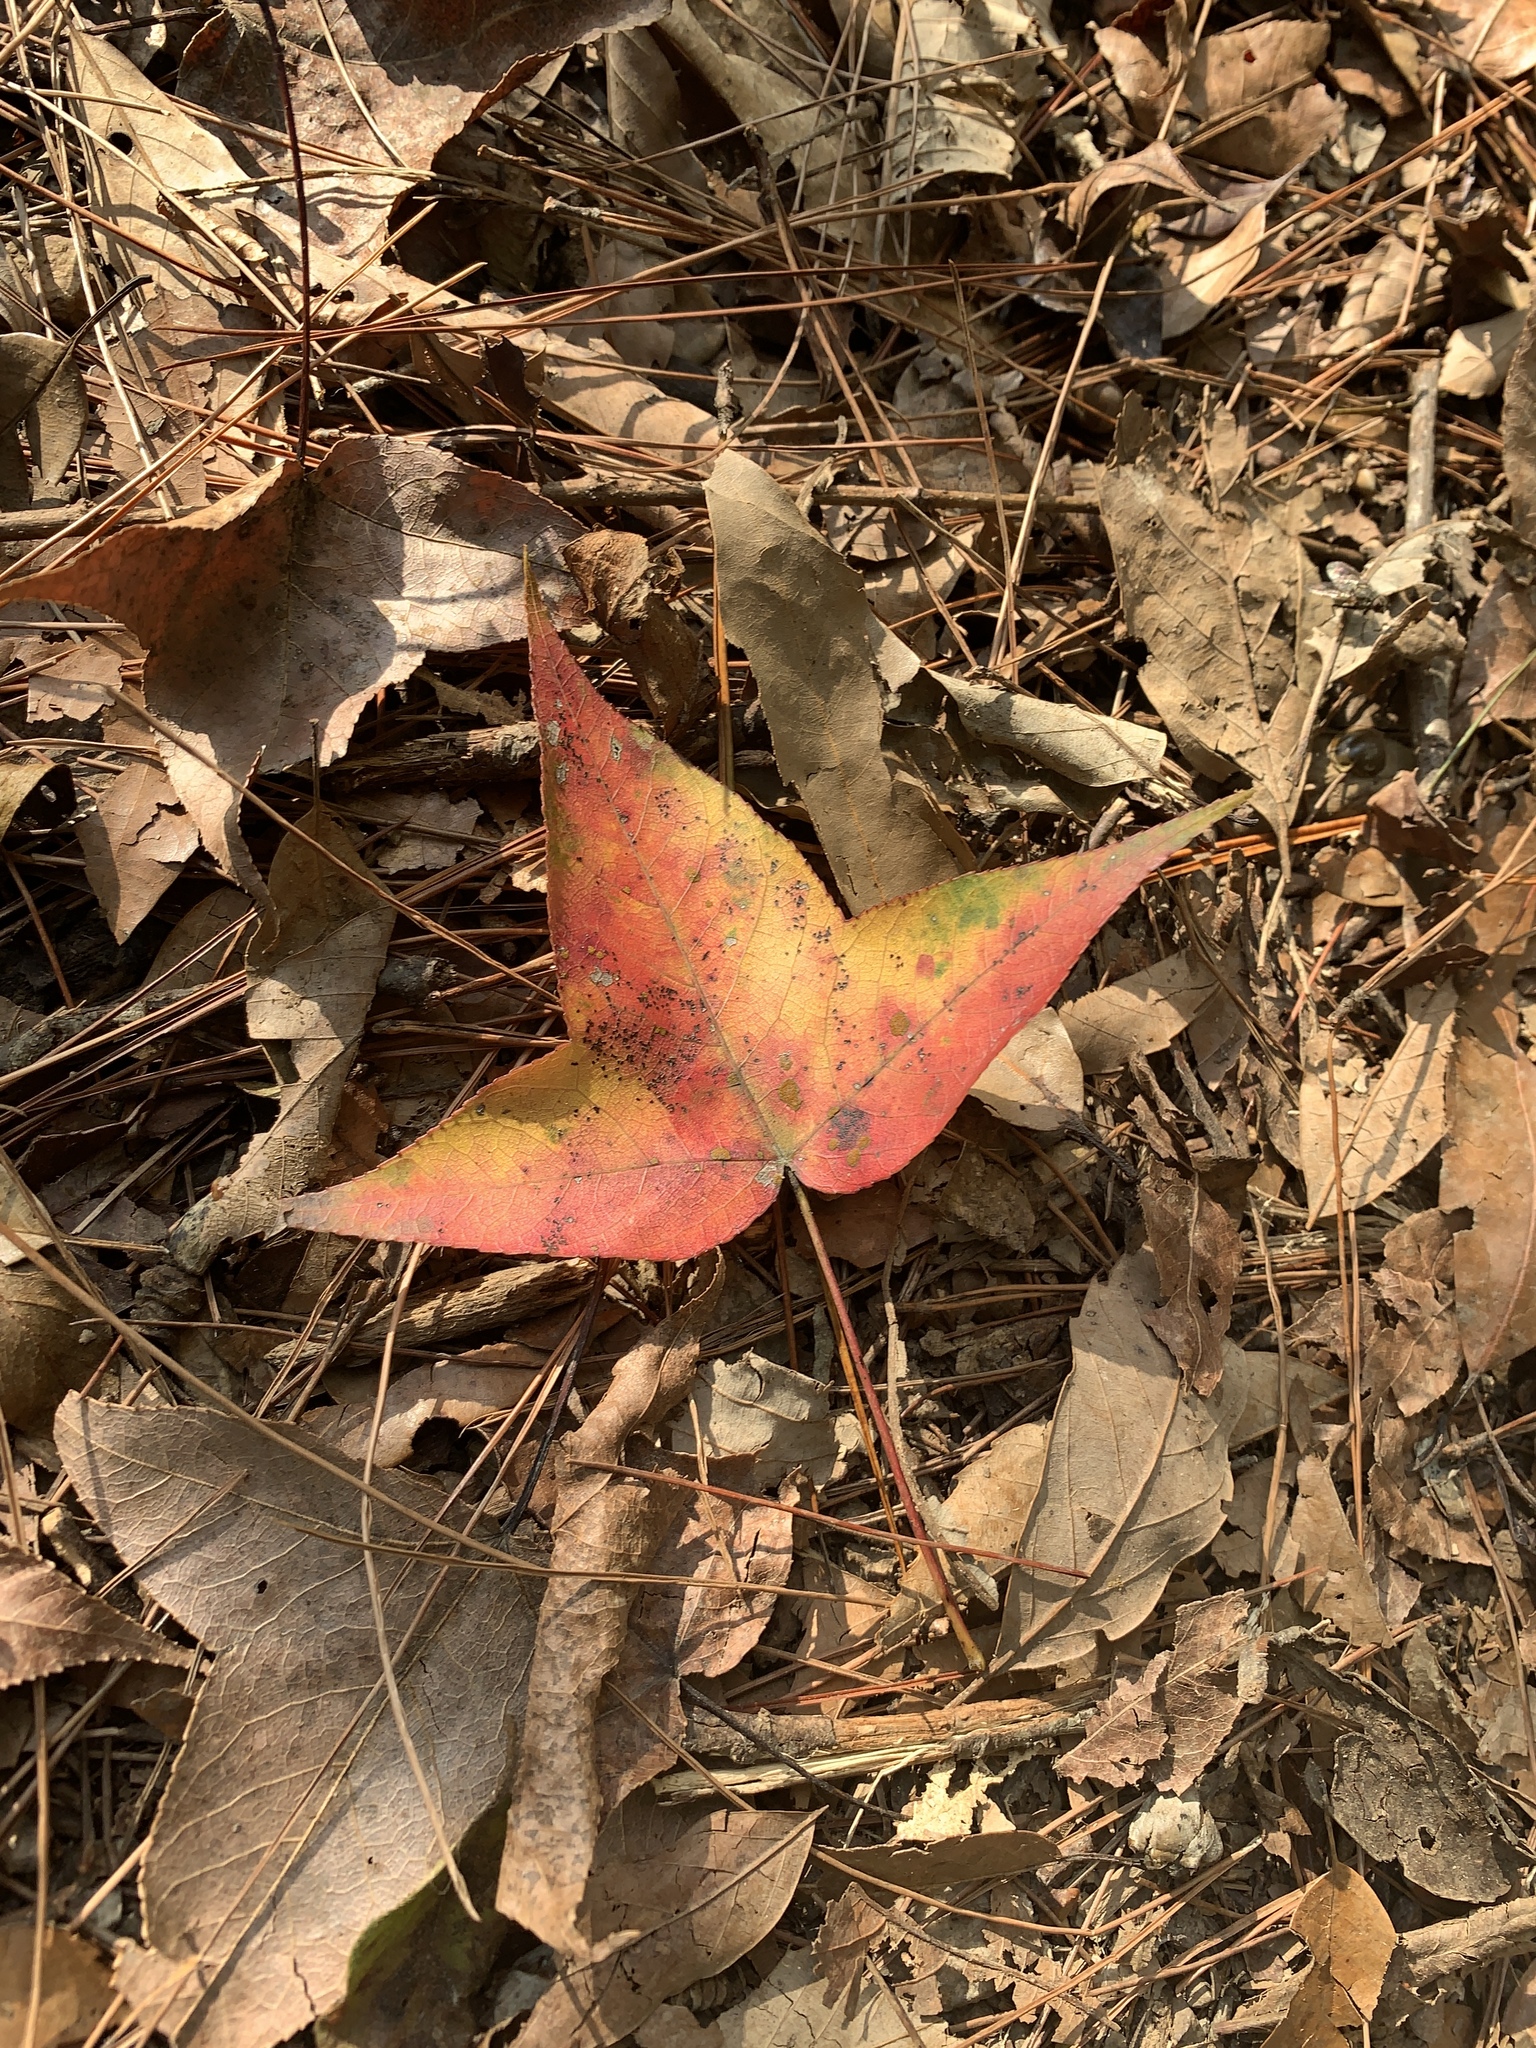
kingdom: Plantae
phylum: Tracheophyta
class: Magnoliopsida
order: Saxifragales
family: Altingiaceae
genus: Liquidambar
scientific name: Liquidambar formosana
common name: Chinese sweet gum
